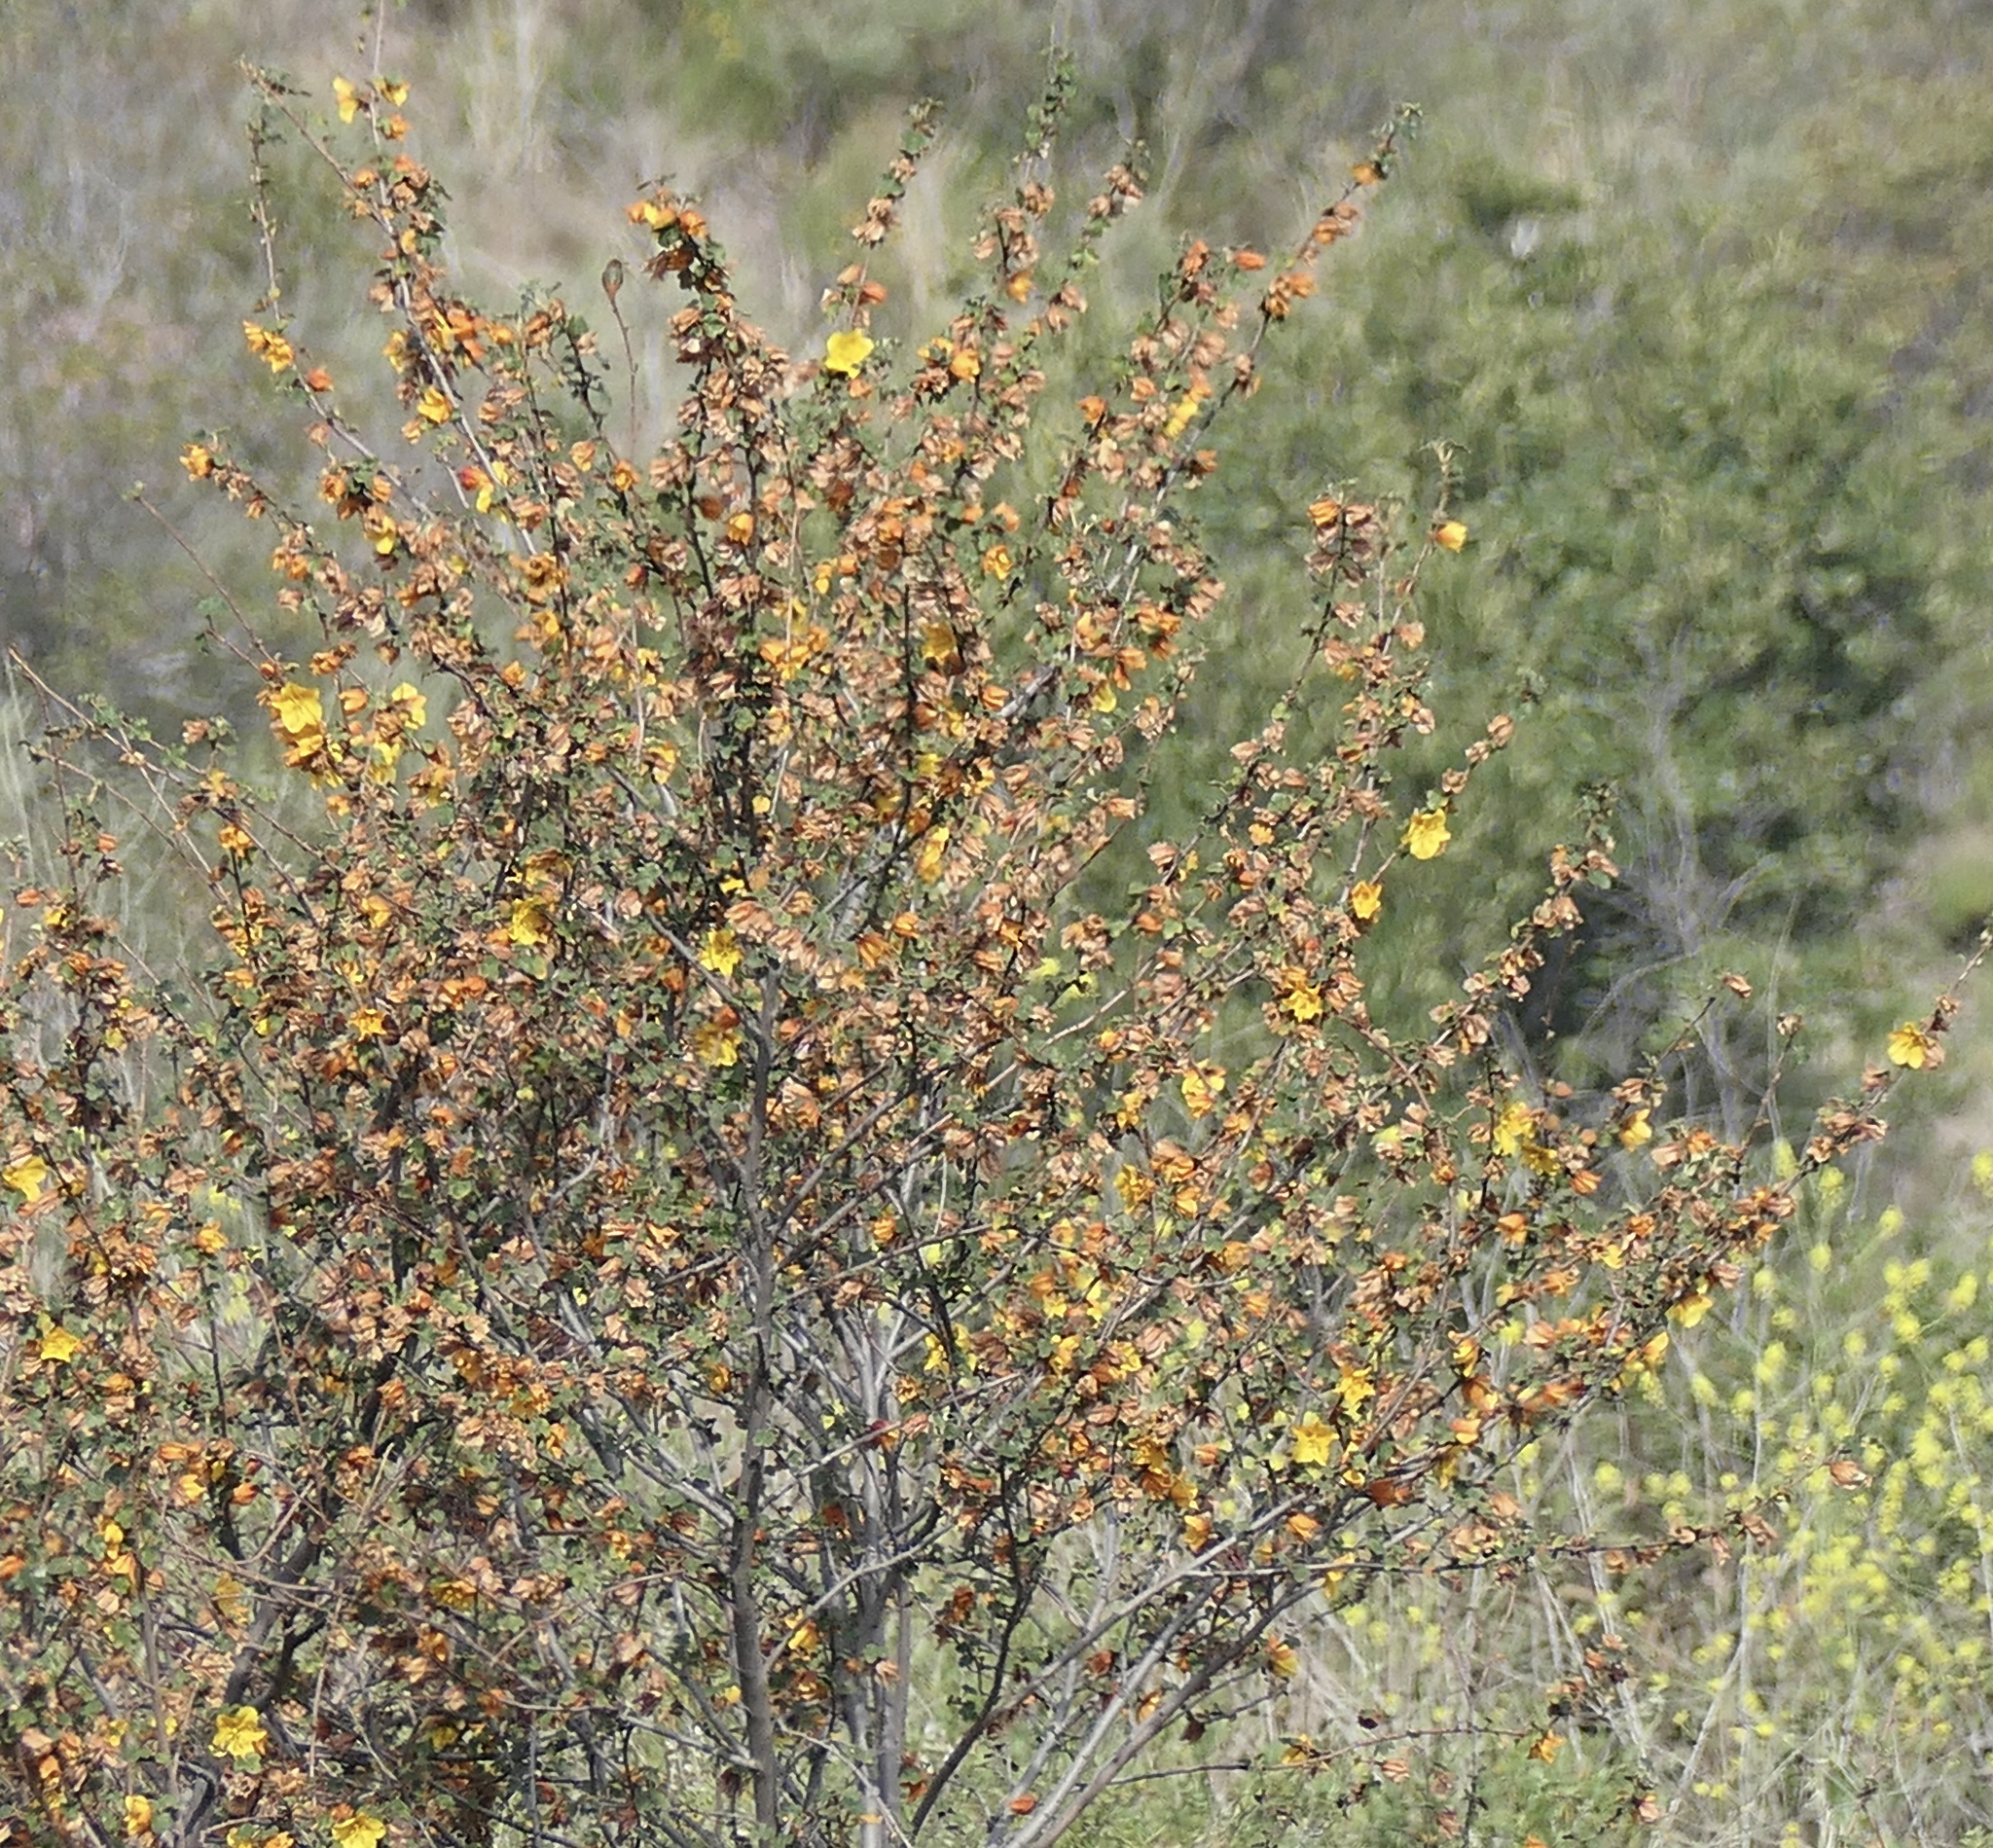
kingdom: Plantae
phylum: Tracheophyta
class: Magnoliopsida
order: Malvales
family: Malvaceae
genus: Fremontodendron
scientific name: Fremontodendron californicum
